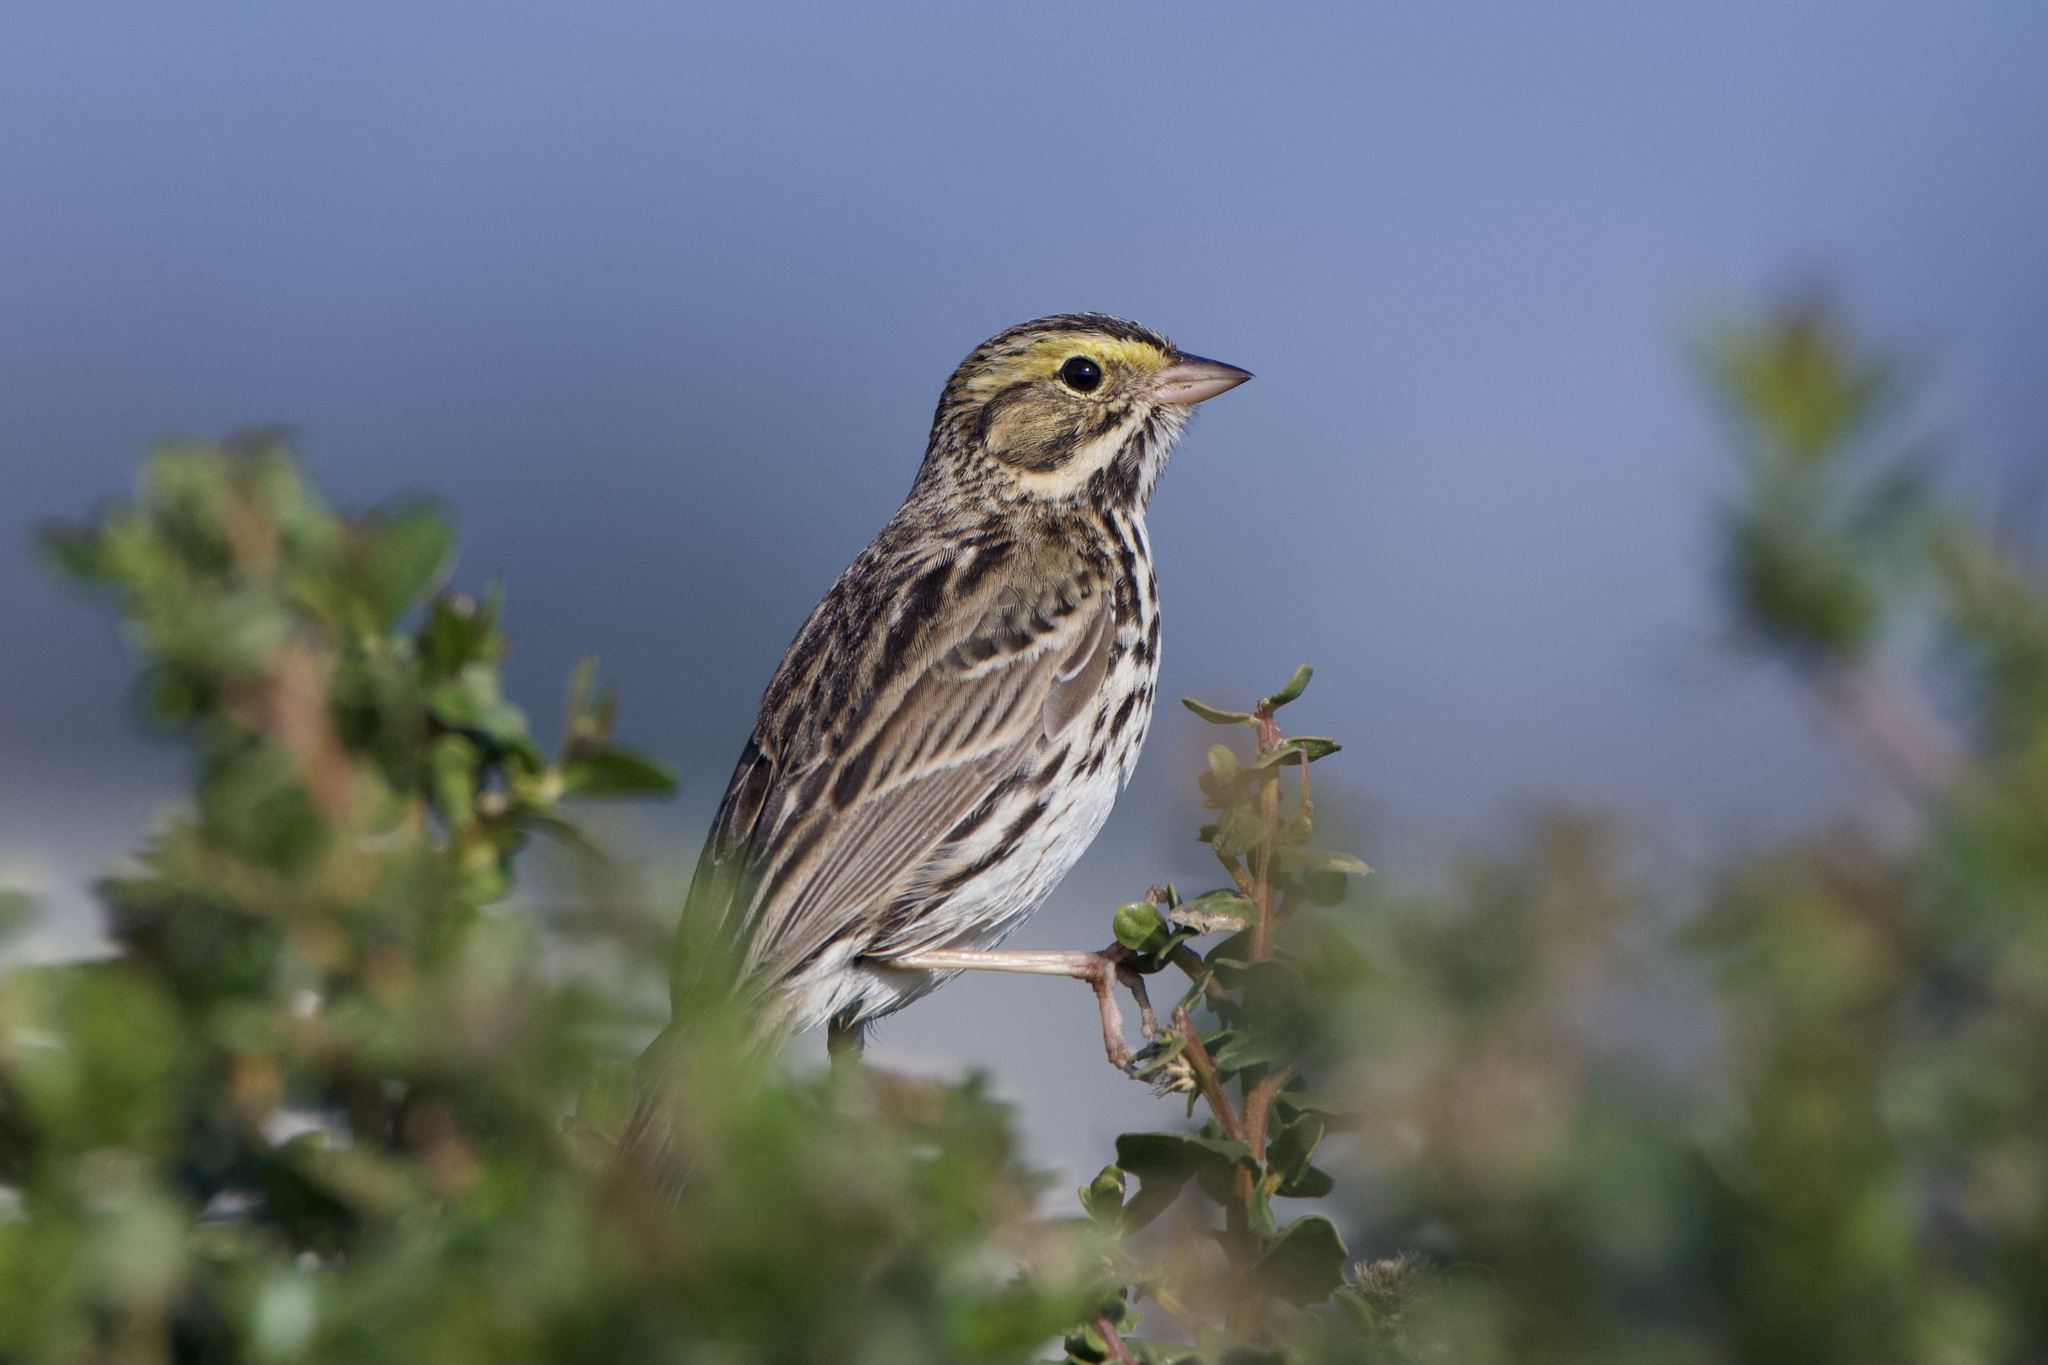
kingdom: Animalia
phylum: Chordata
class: Aves
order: Passeriformes
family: Passerellidae
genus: Passerculus
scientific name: Passerculus sandwichensis
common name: Savannah sparrow
